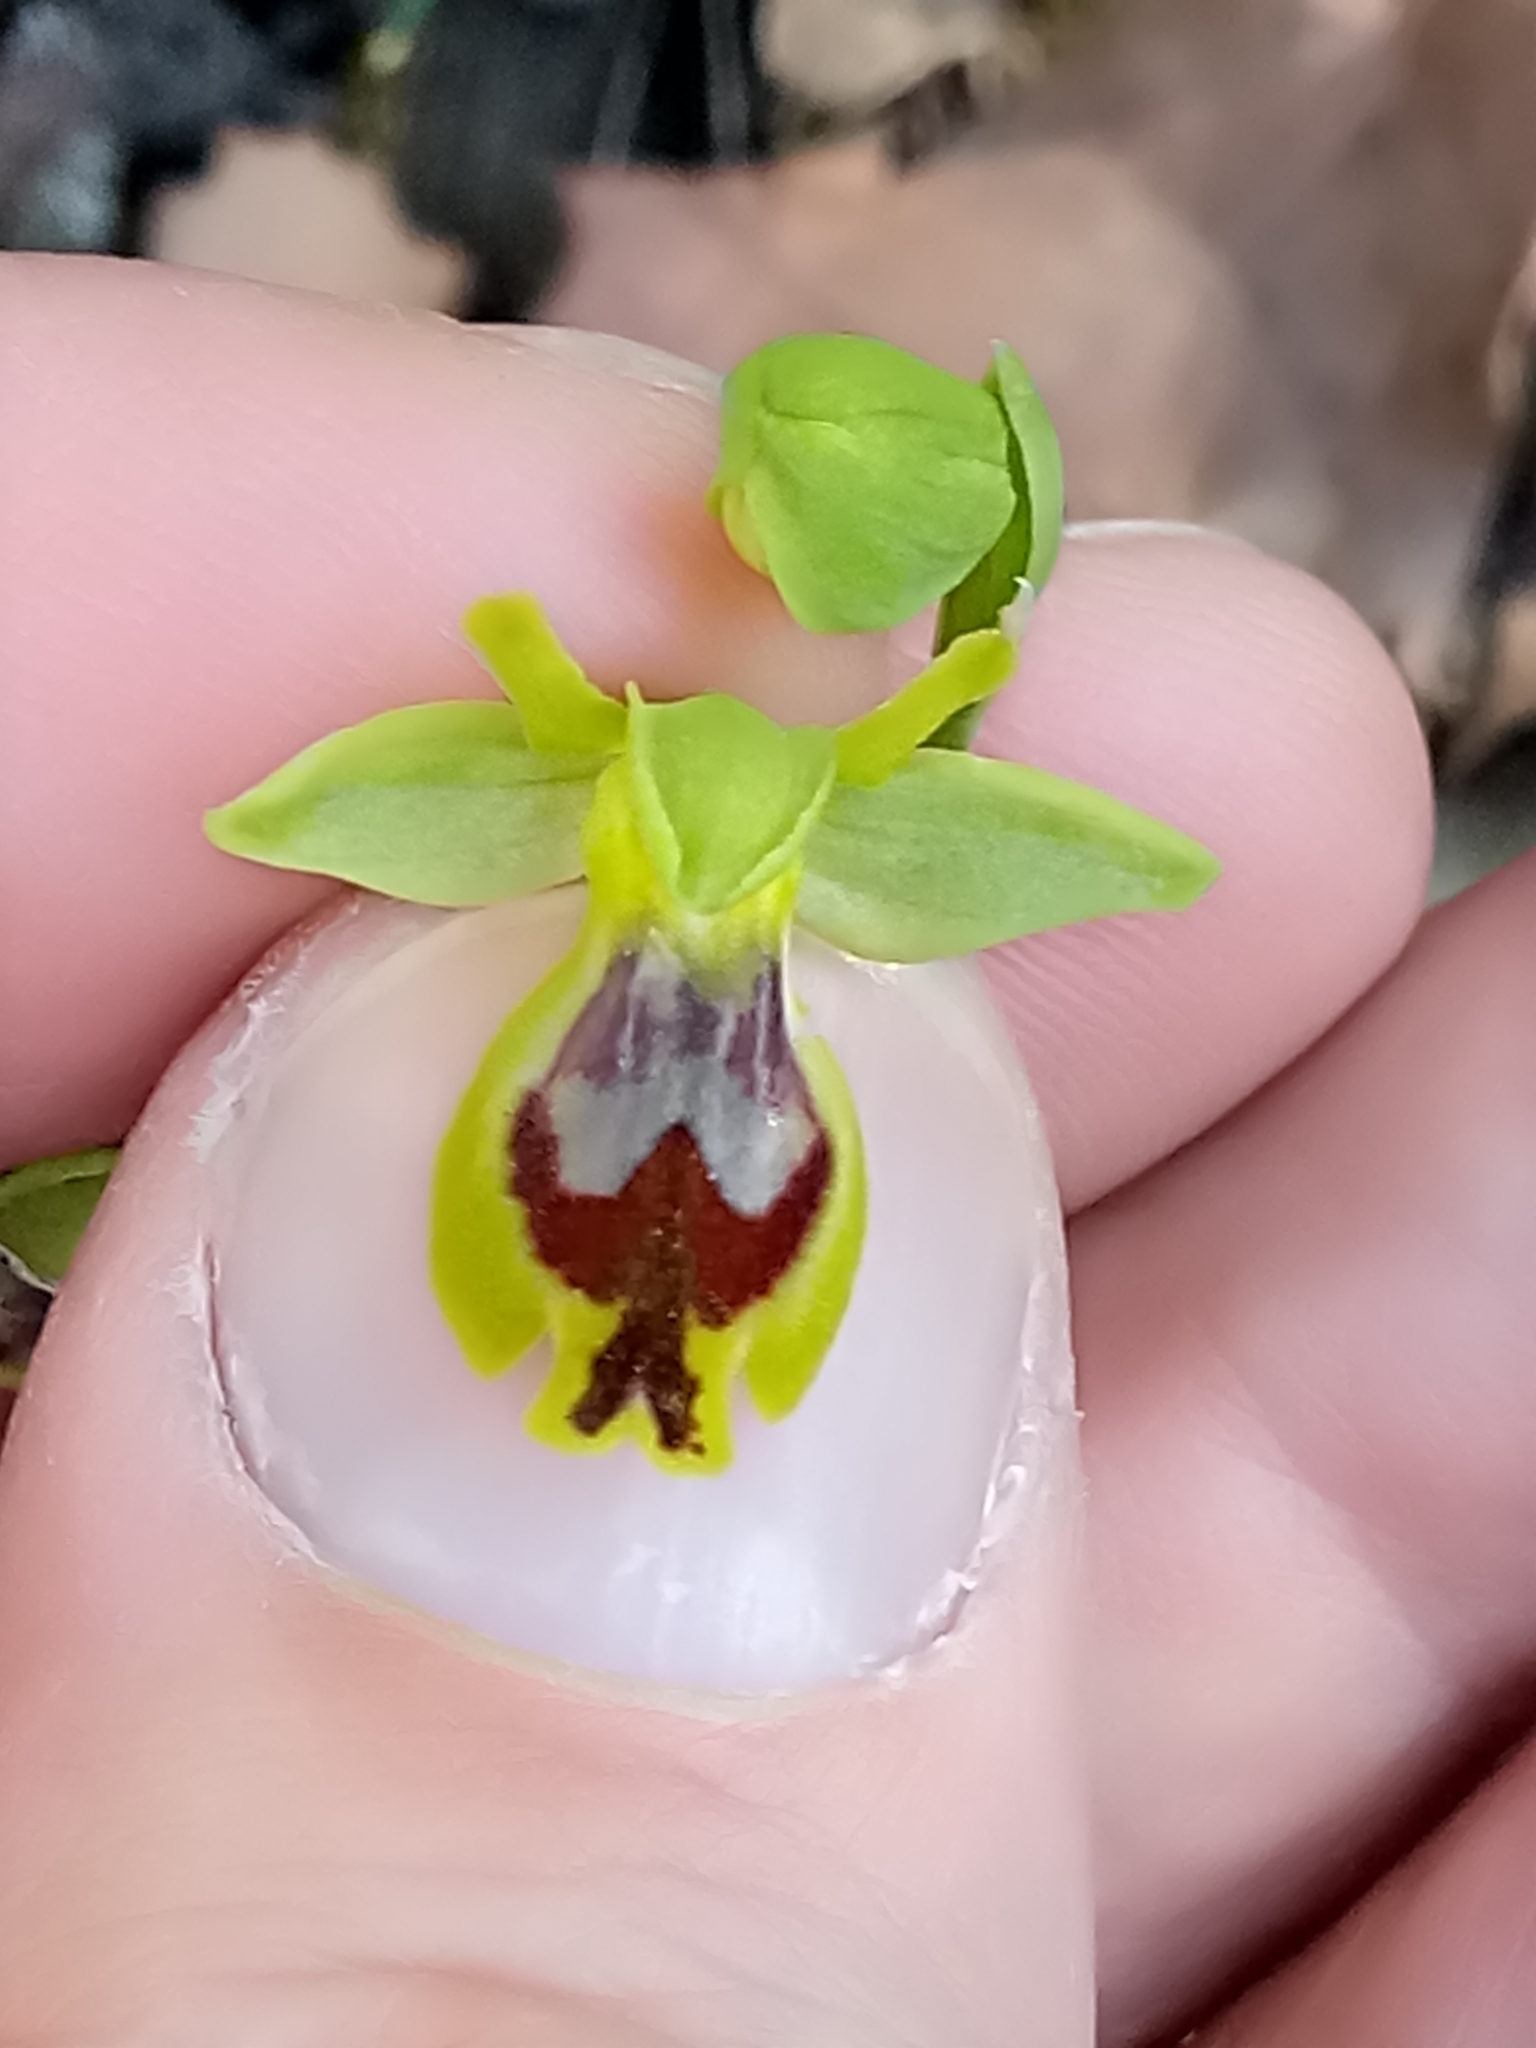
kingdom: Plantae
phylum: Tracheophyta
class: Liliopsida
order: Asparagales
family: Orchidaceae
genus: Ophrys
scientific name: Ophrys battandieri
